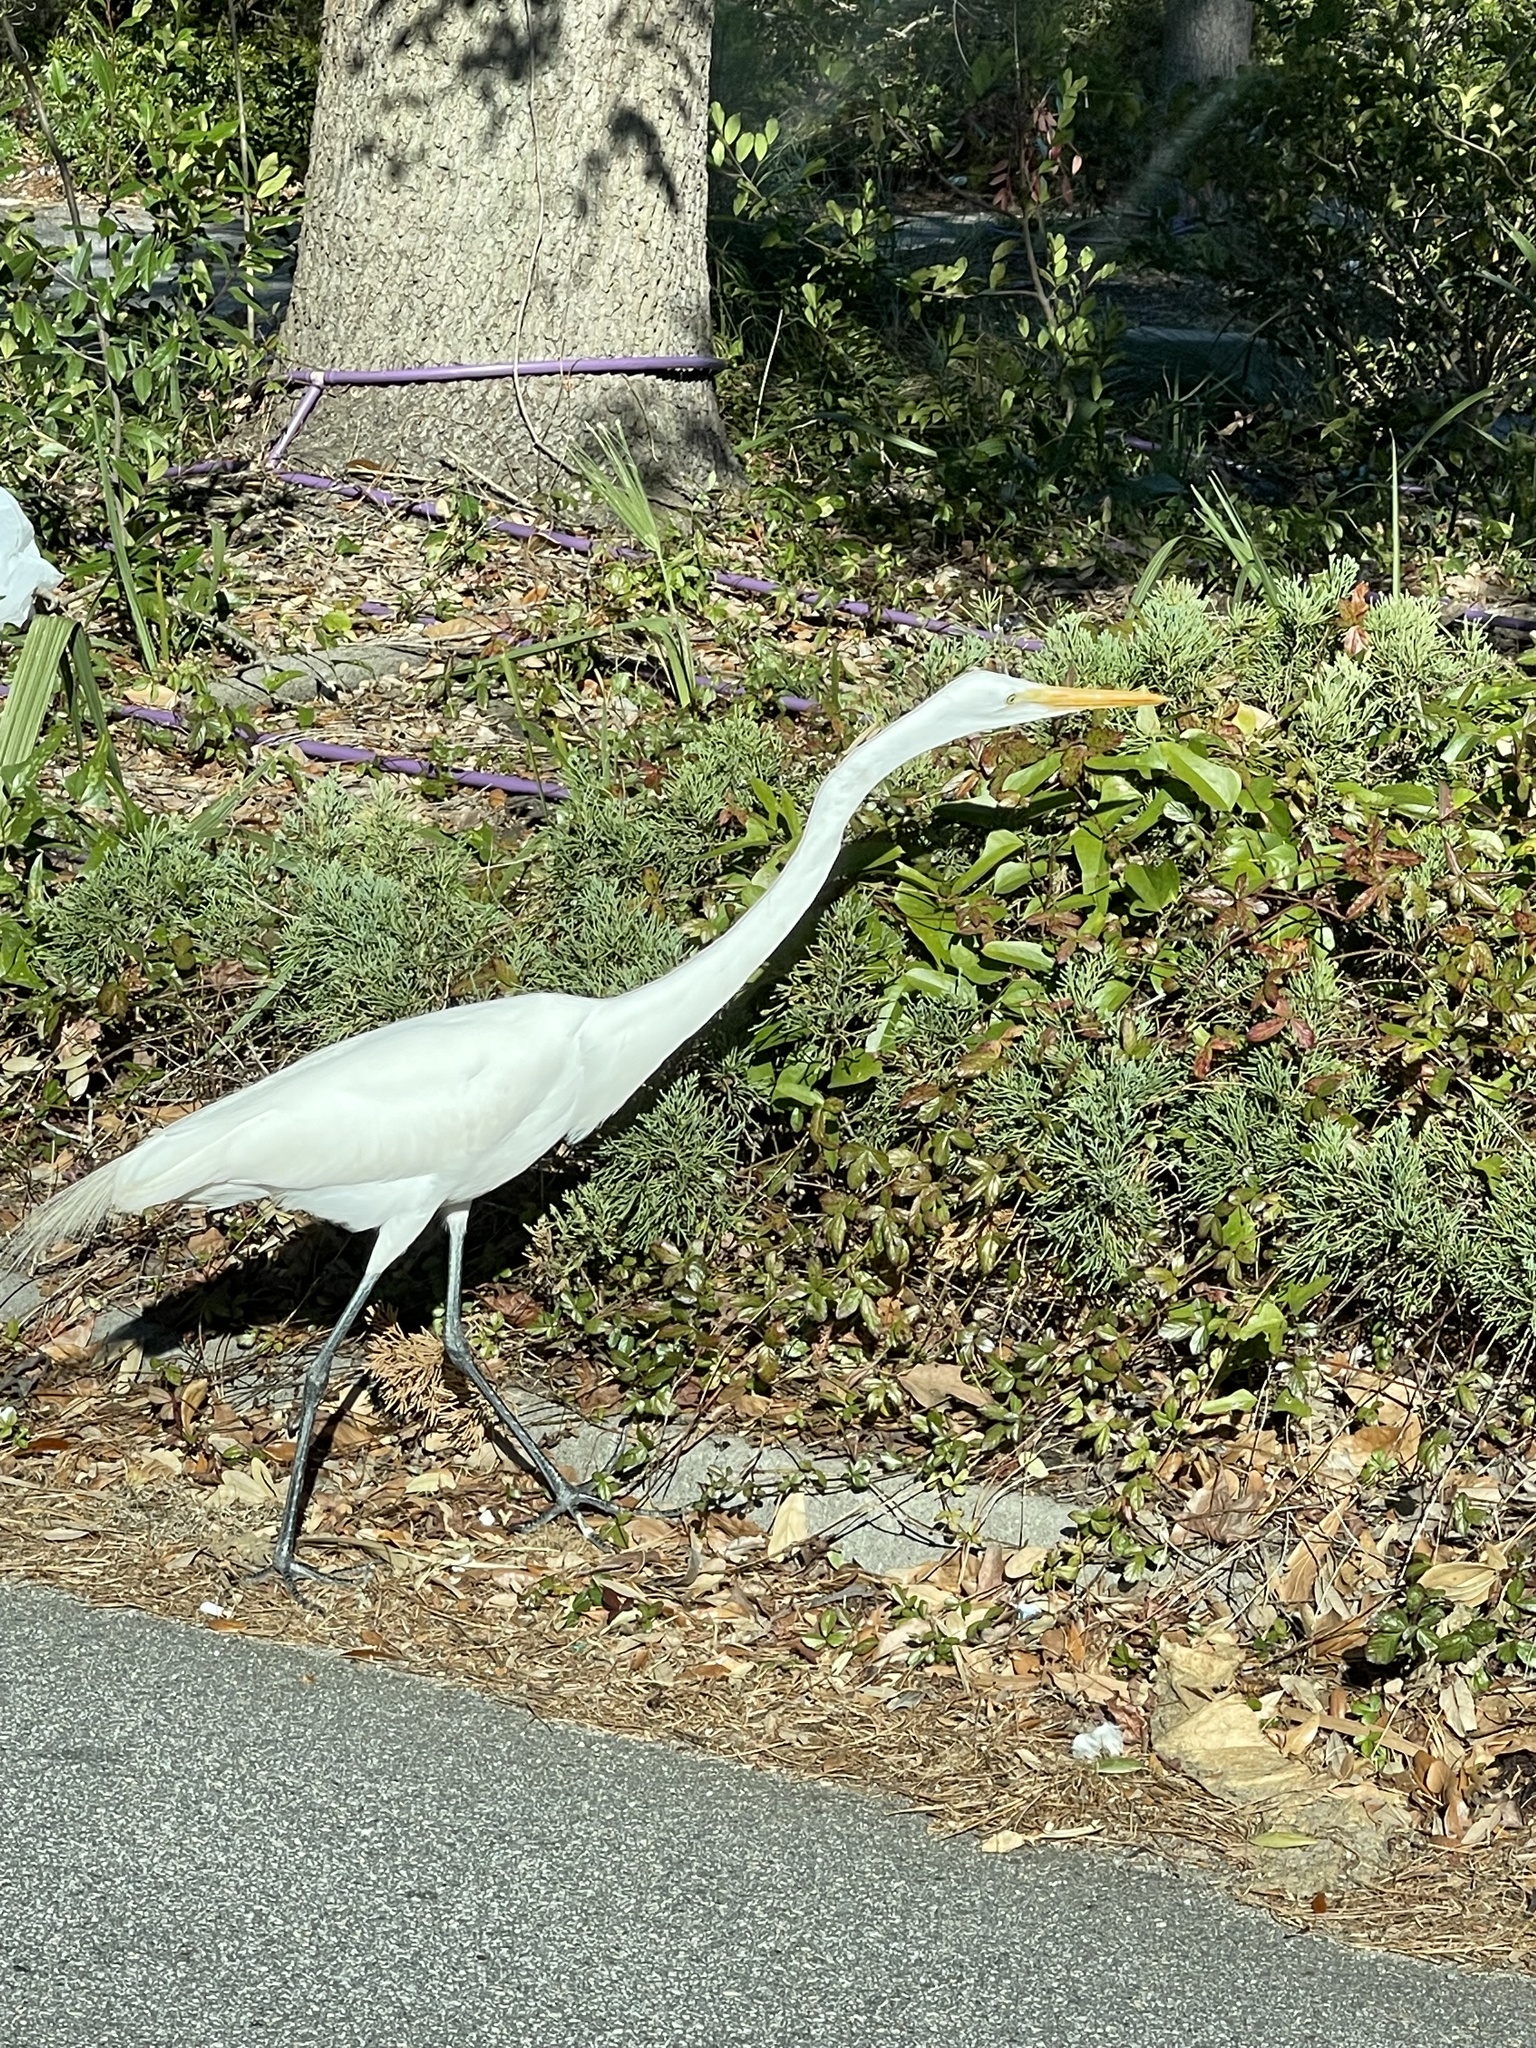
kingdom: Animalia
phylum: Chordata
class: Aves
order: Pelecaniformes
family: Ardeidae
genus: Ardea
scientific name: Ardea alba
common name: Great egret
